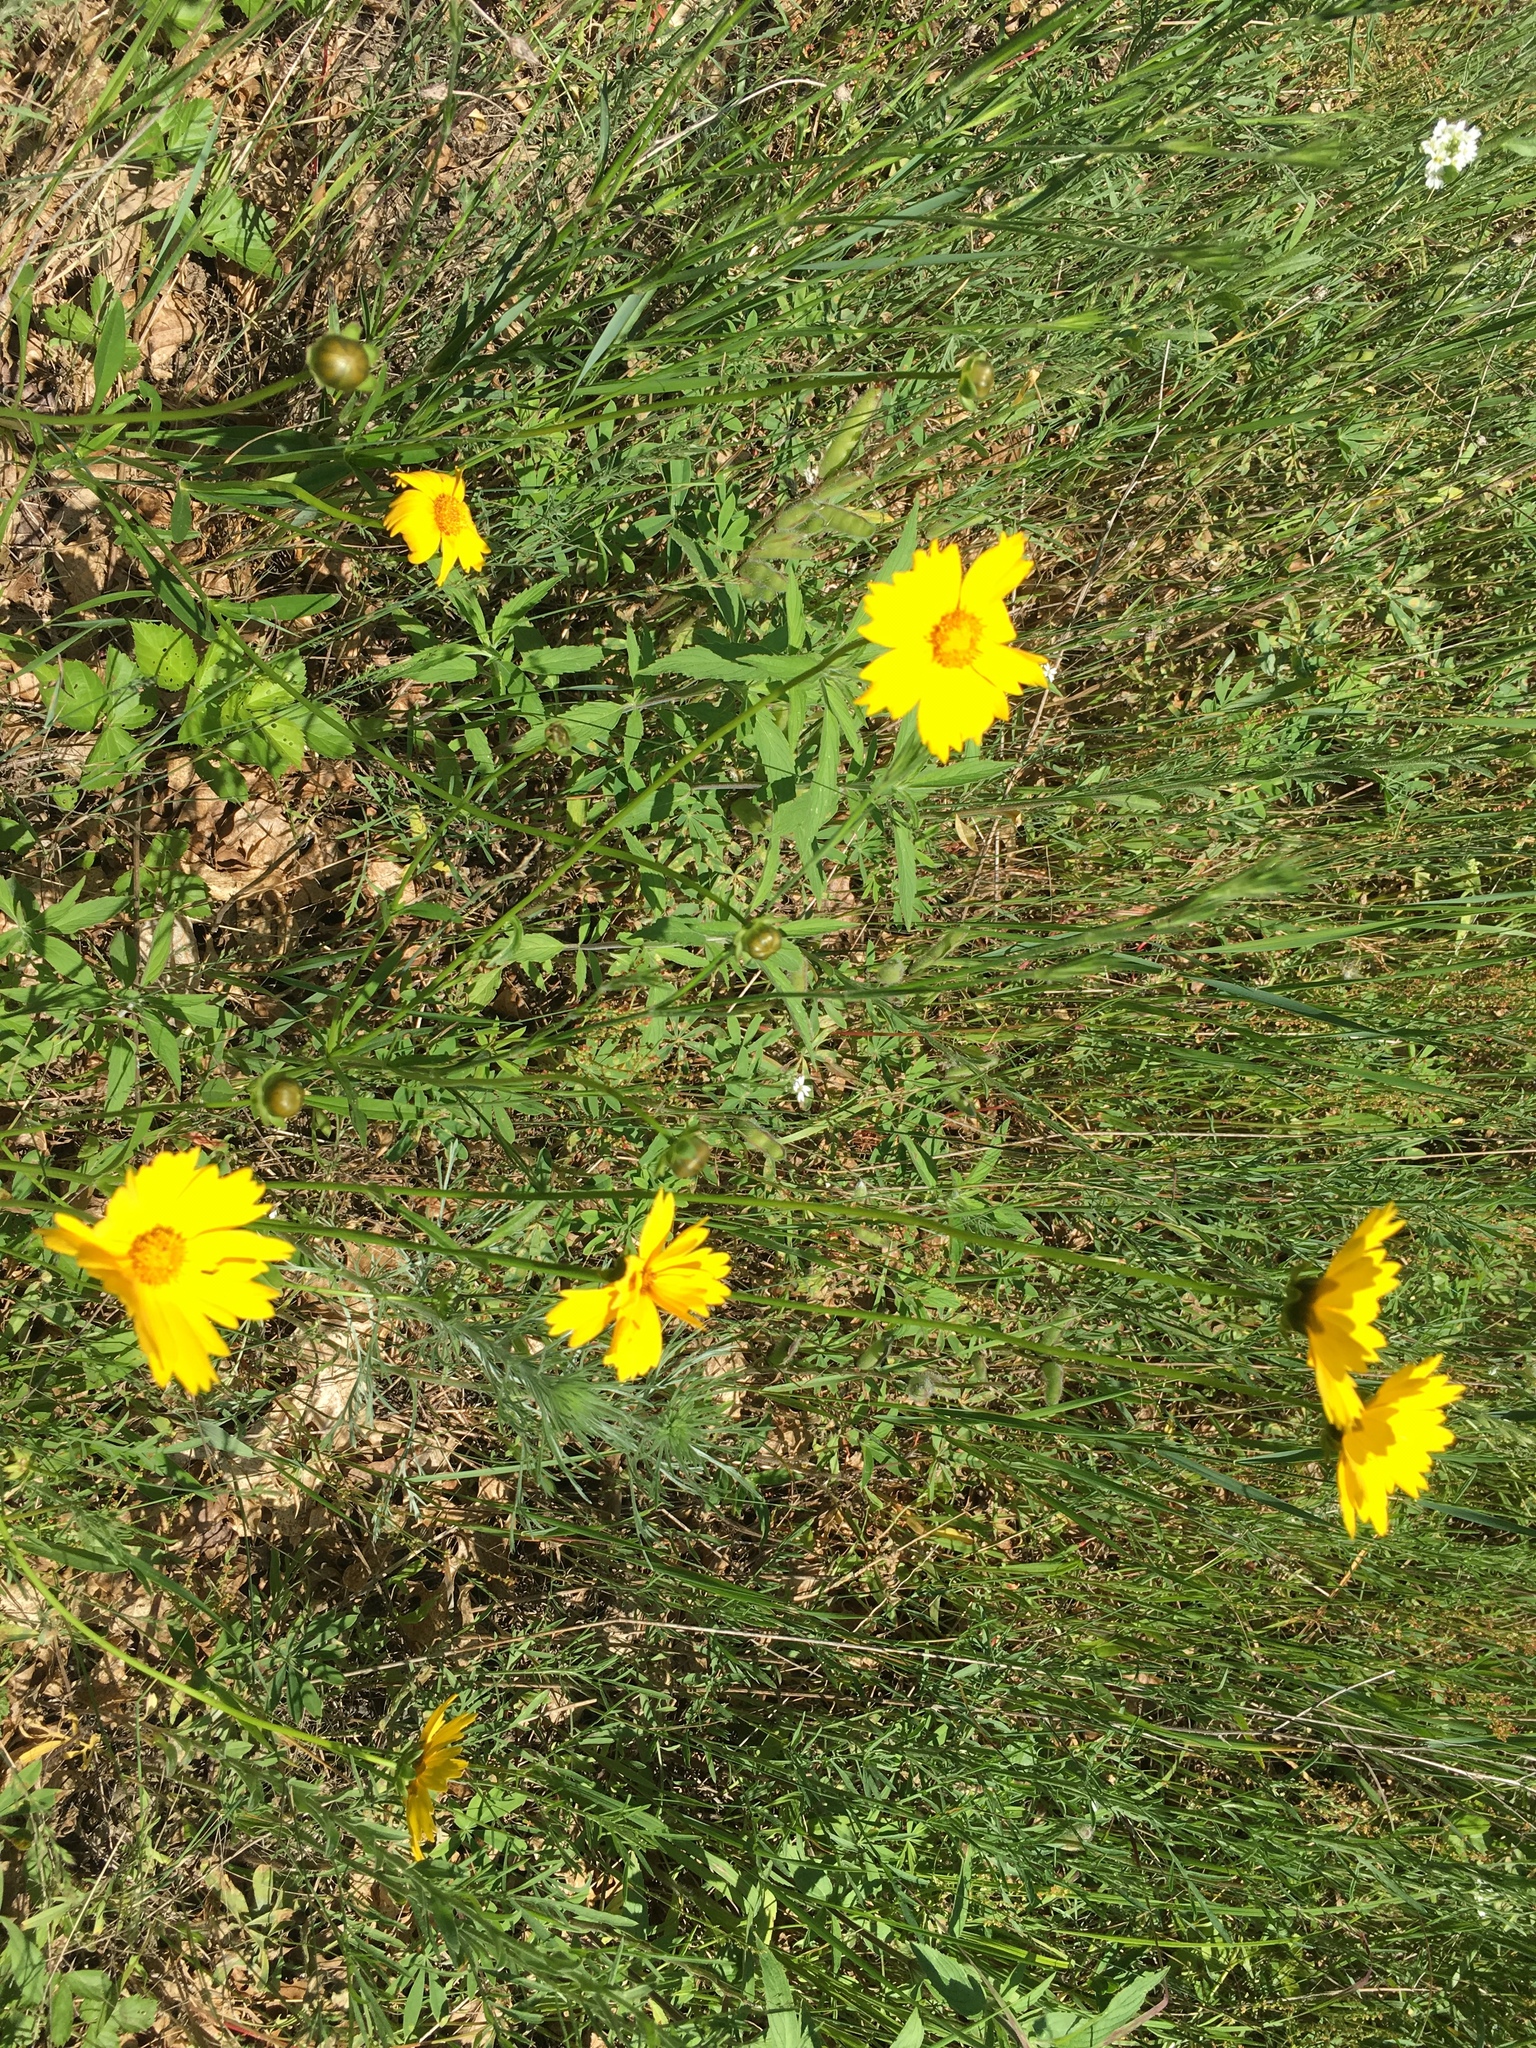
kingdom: Plantae
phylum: Tracheophyta
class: Magnoliopsida
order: Asterales
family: Asteraceae
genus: Coreopsis
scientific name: Coreopsis lanceolata
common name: Garden coreopsis
